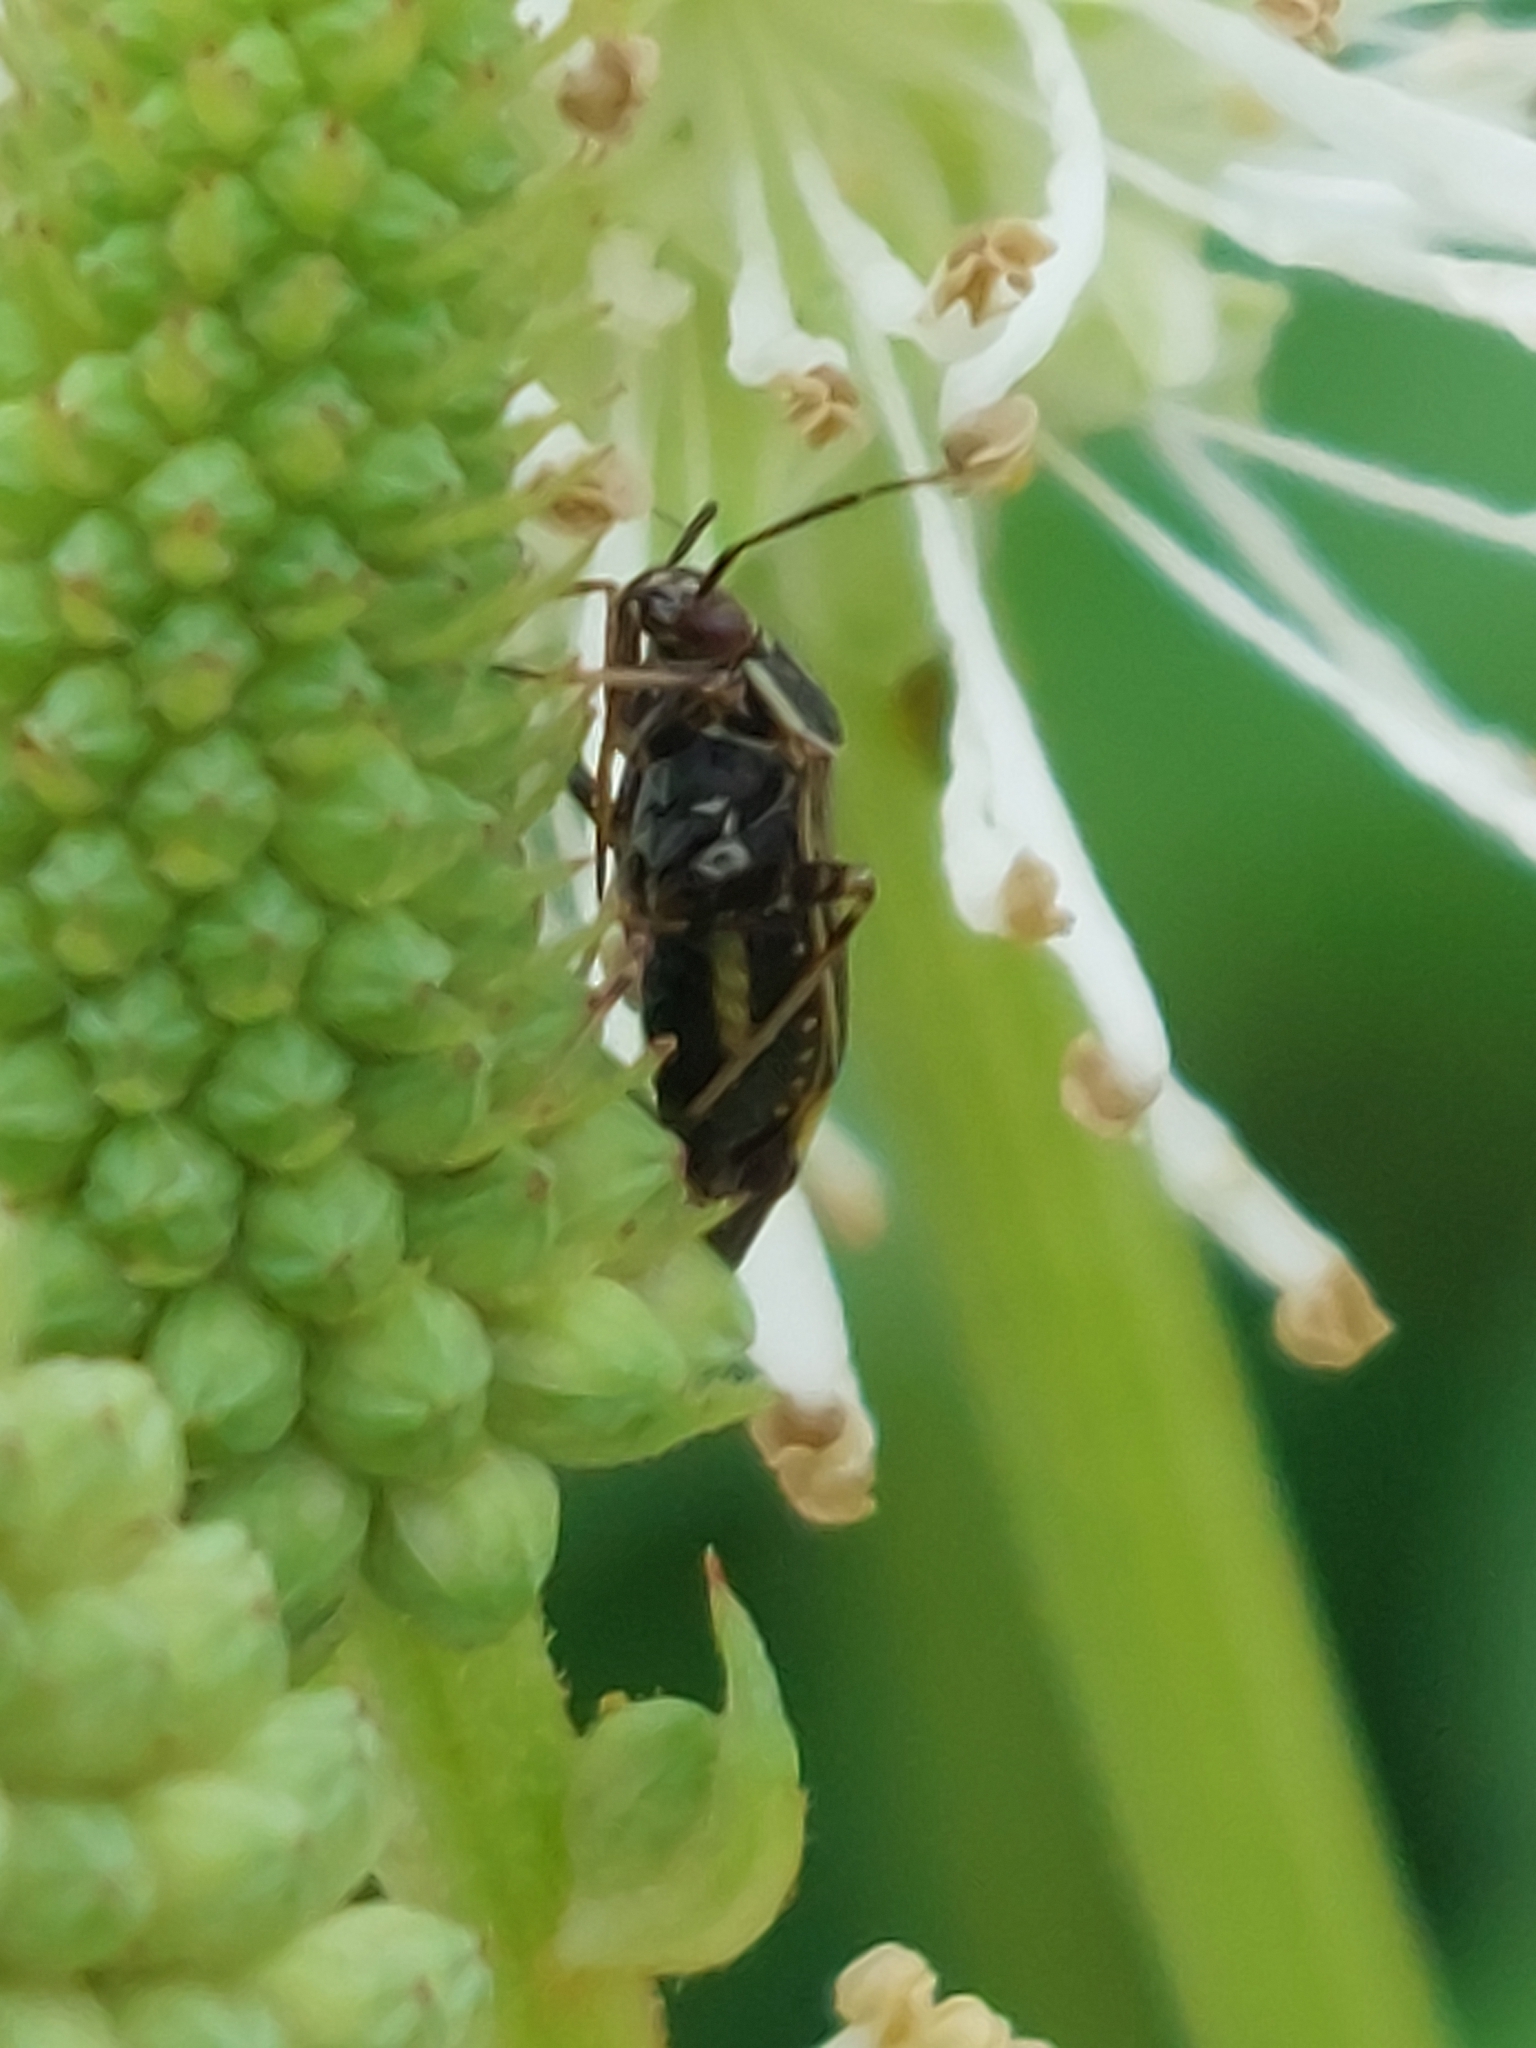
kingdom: Animalia
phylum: Arthropoda
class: Insecta
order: Hemiptera
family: Miridae
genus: Lygus
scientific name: Lygus lineolaris
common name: North american tarnished plant bug
